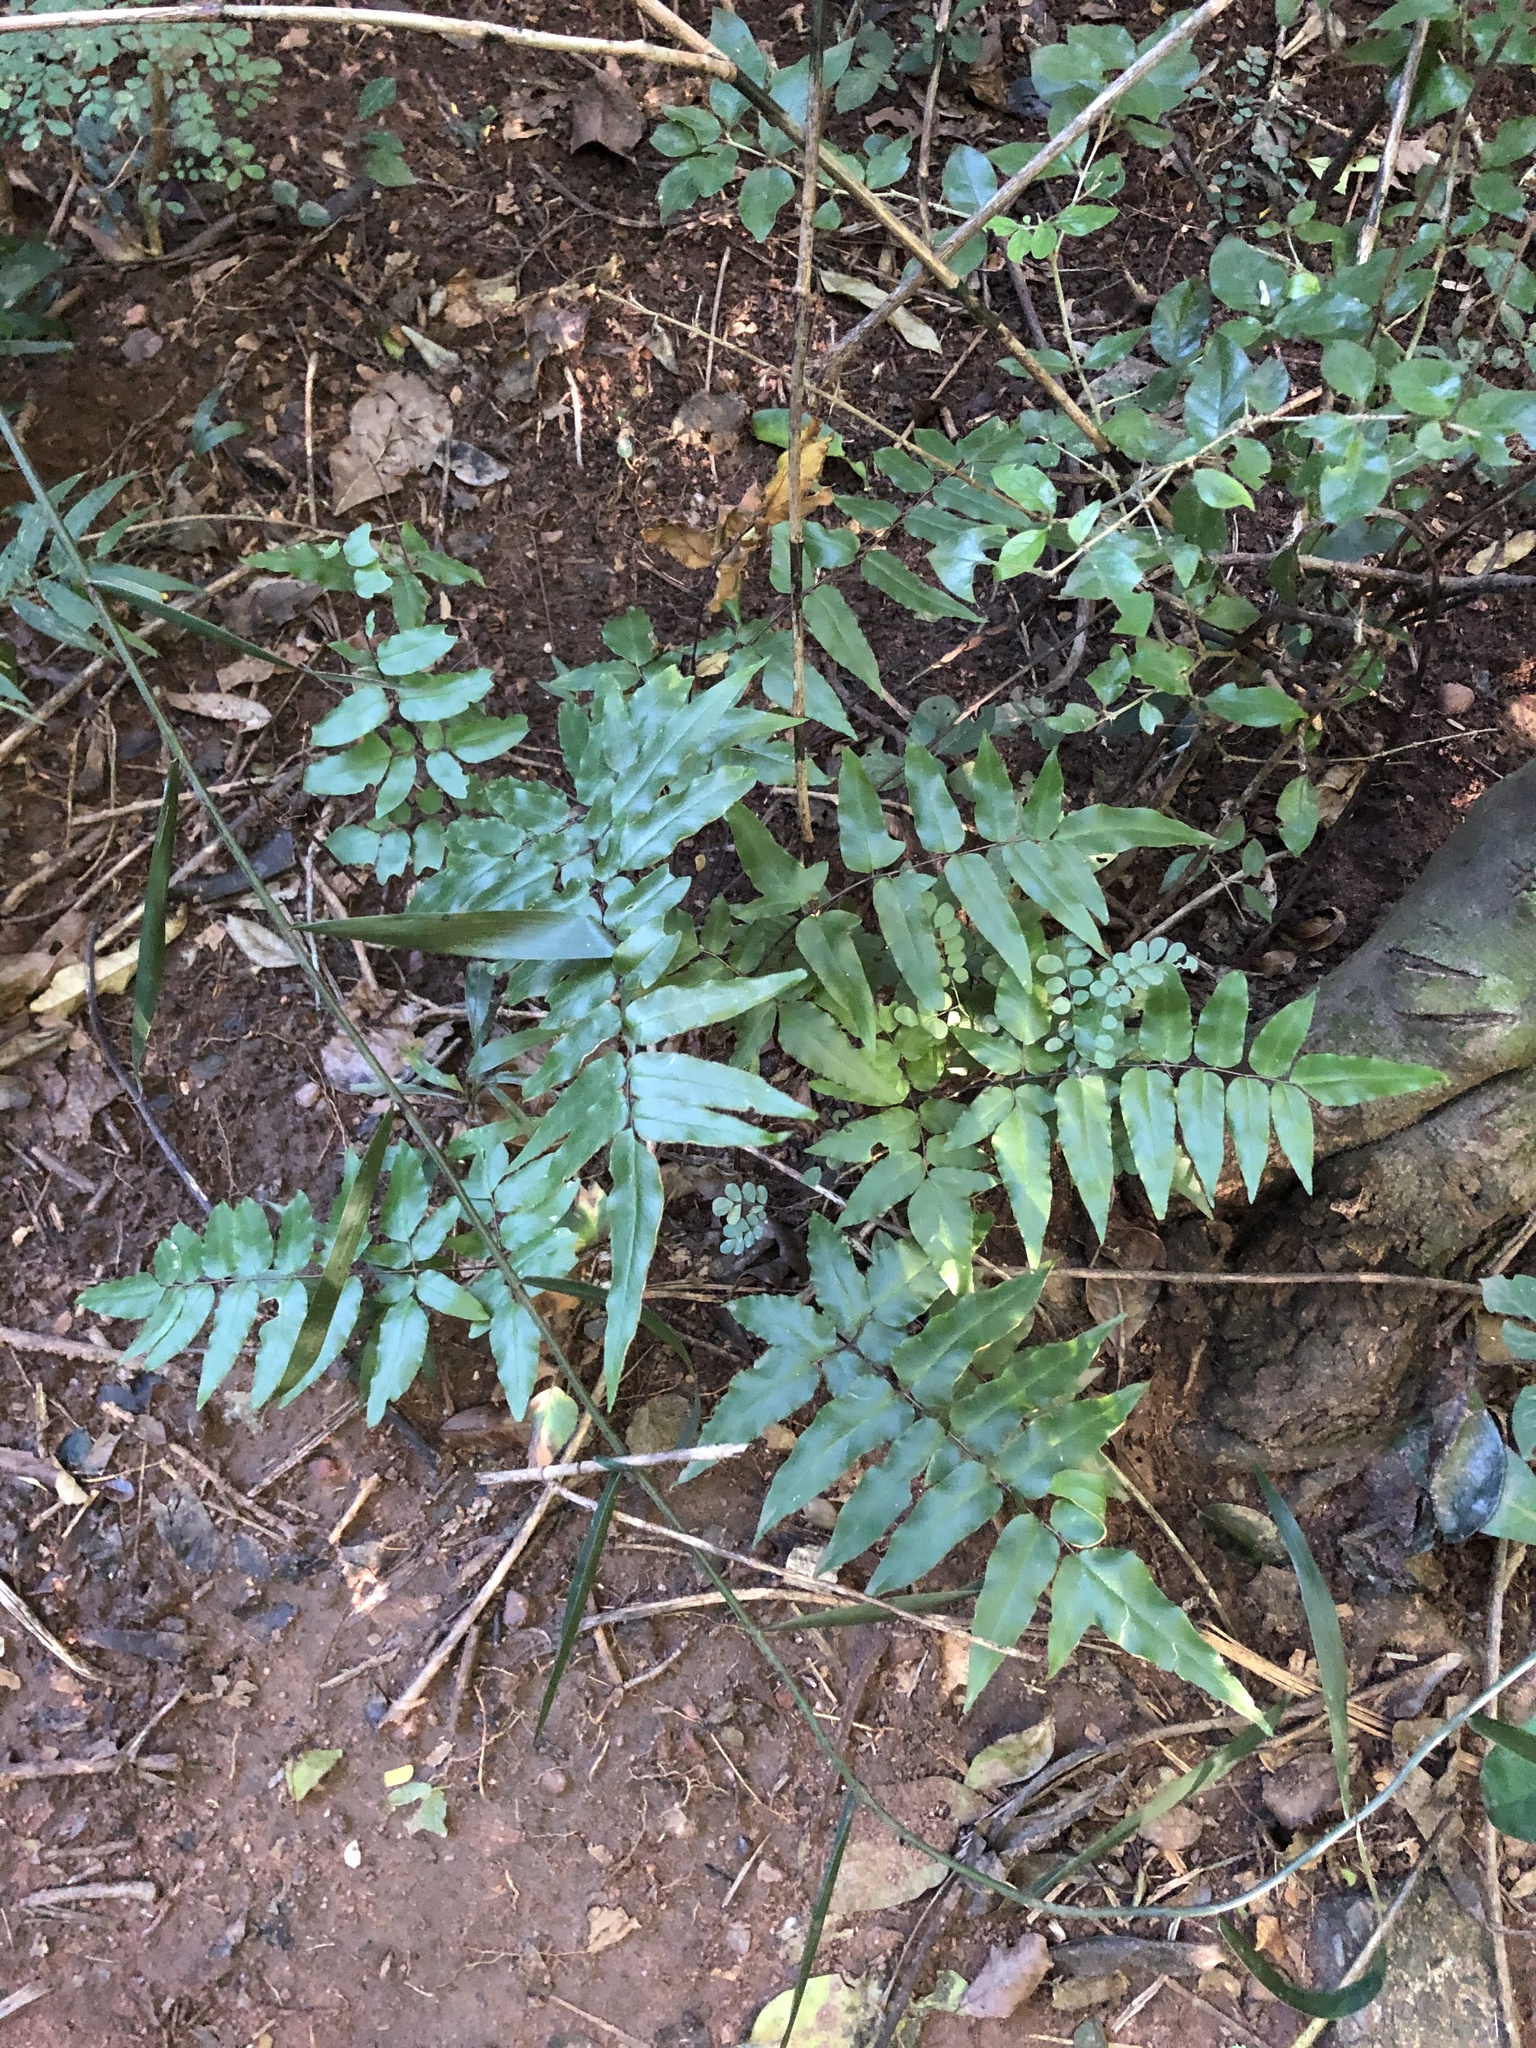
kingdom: Plantae
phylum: Tracheophyta
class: Polypodiopsida
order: Polypodiales
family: Pteridaceae
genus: Cheilanthes
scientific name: Cheilanthes viridis
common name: Green cliffbrake
